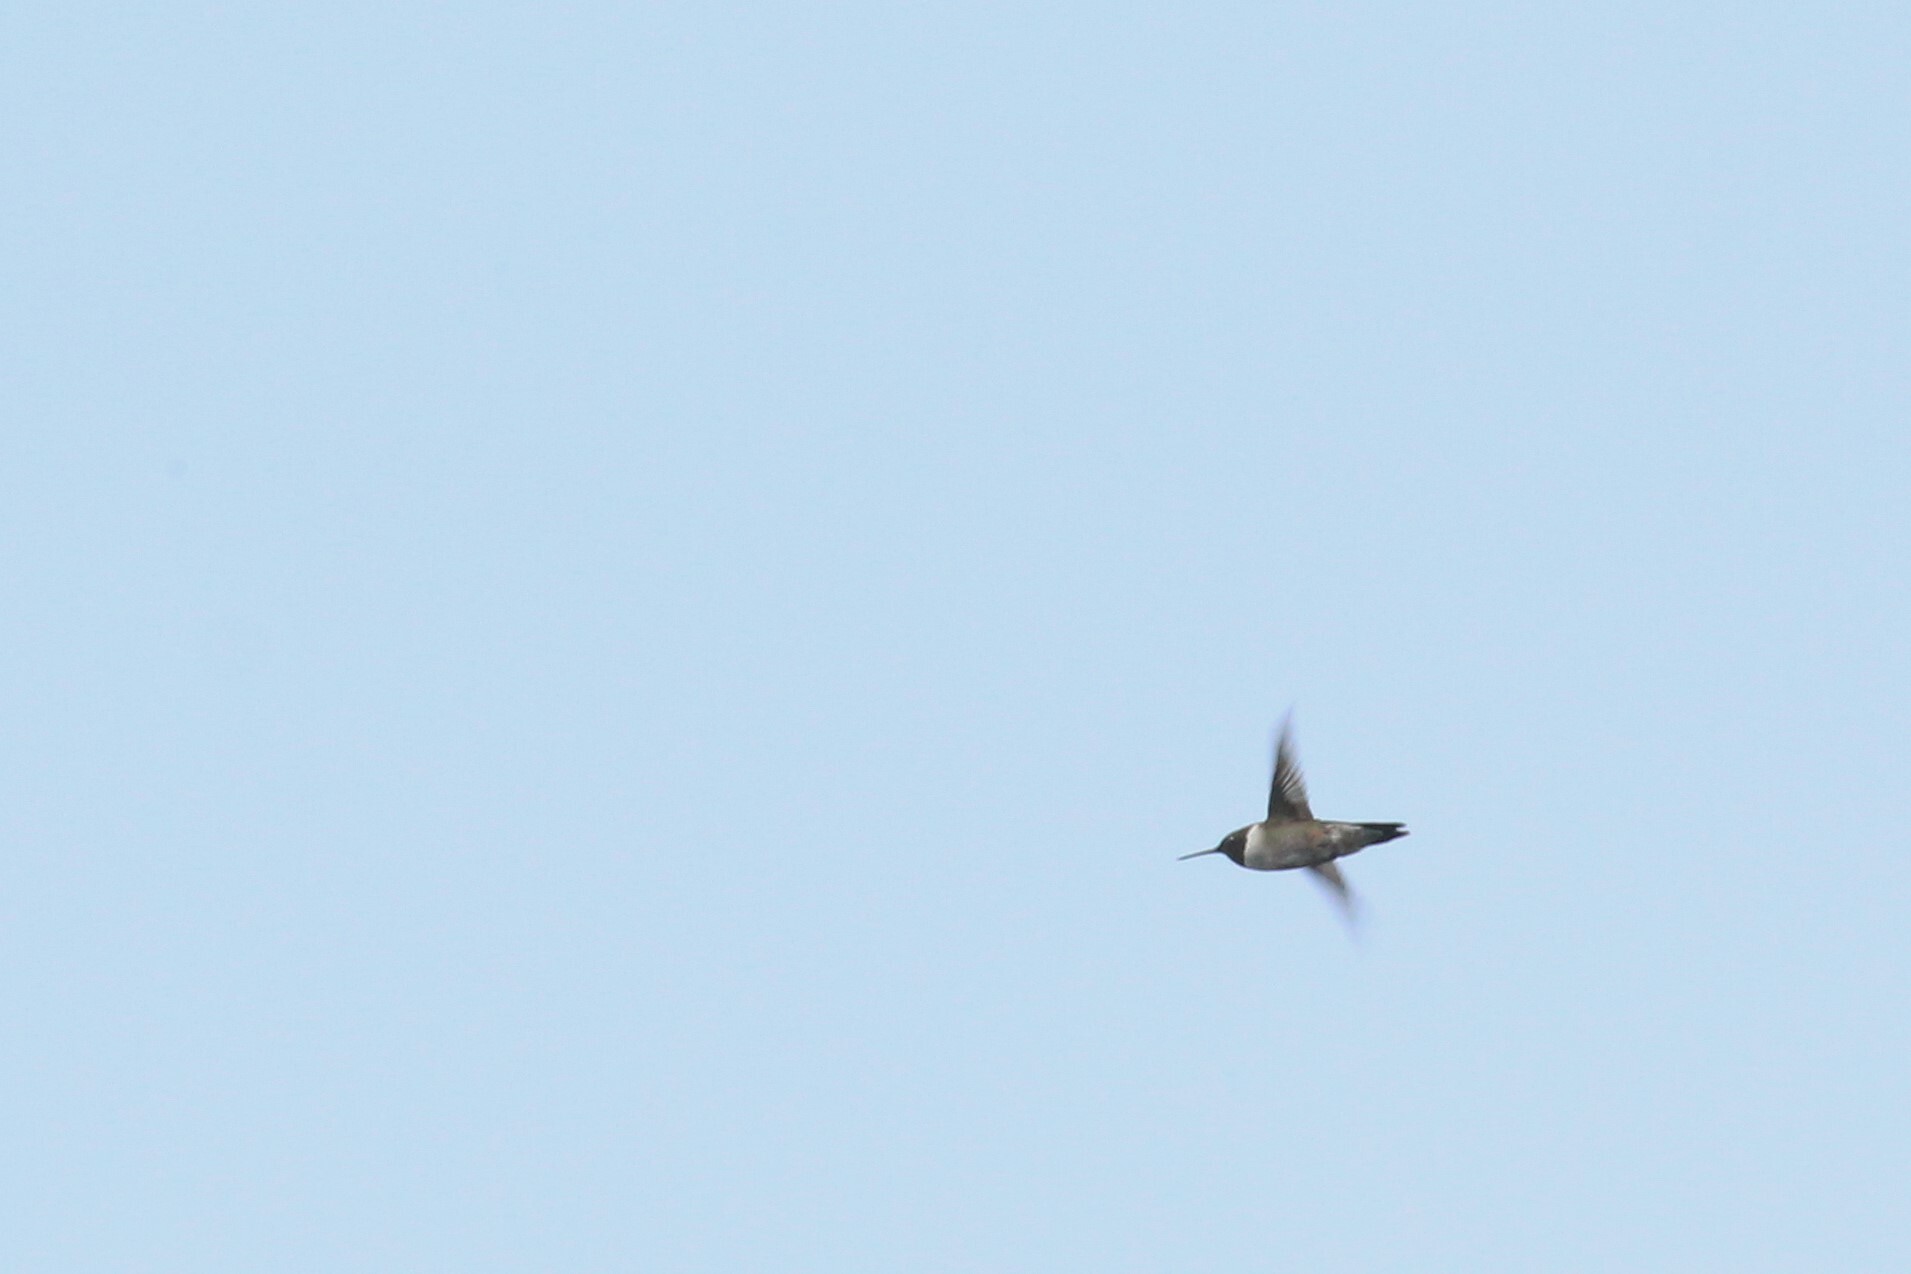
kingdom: Animalia
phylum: Chordata
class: Aves
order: Apodiformes
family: Trochilidae
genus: Archilochus
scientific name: Archilochus colubris
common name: Ruby-throated hummingbird
